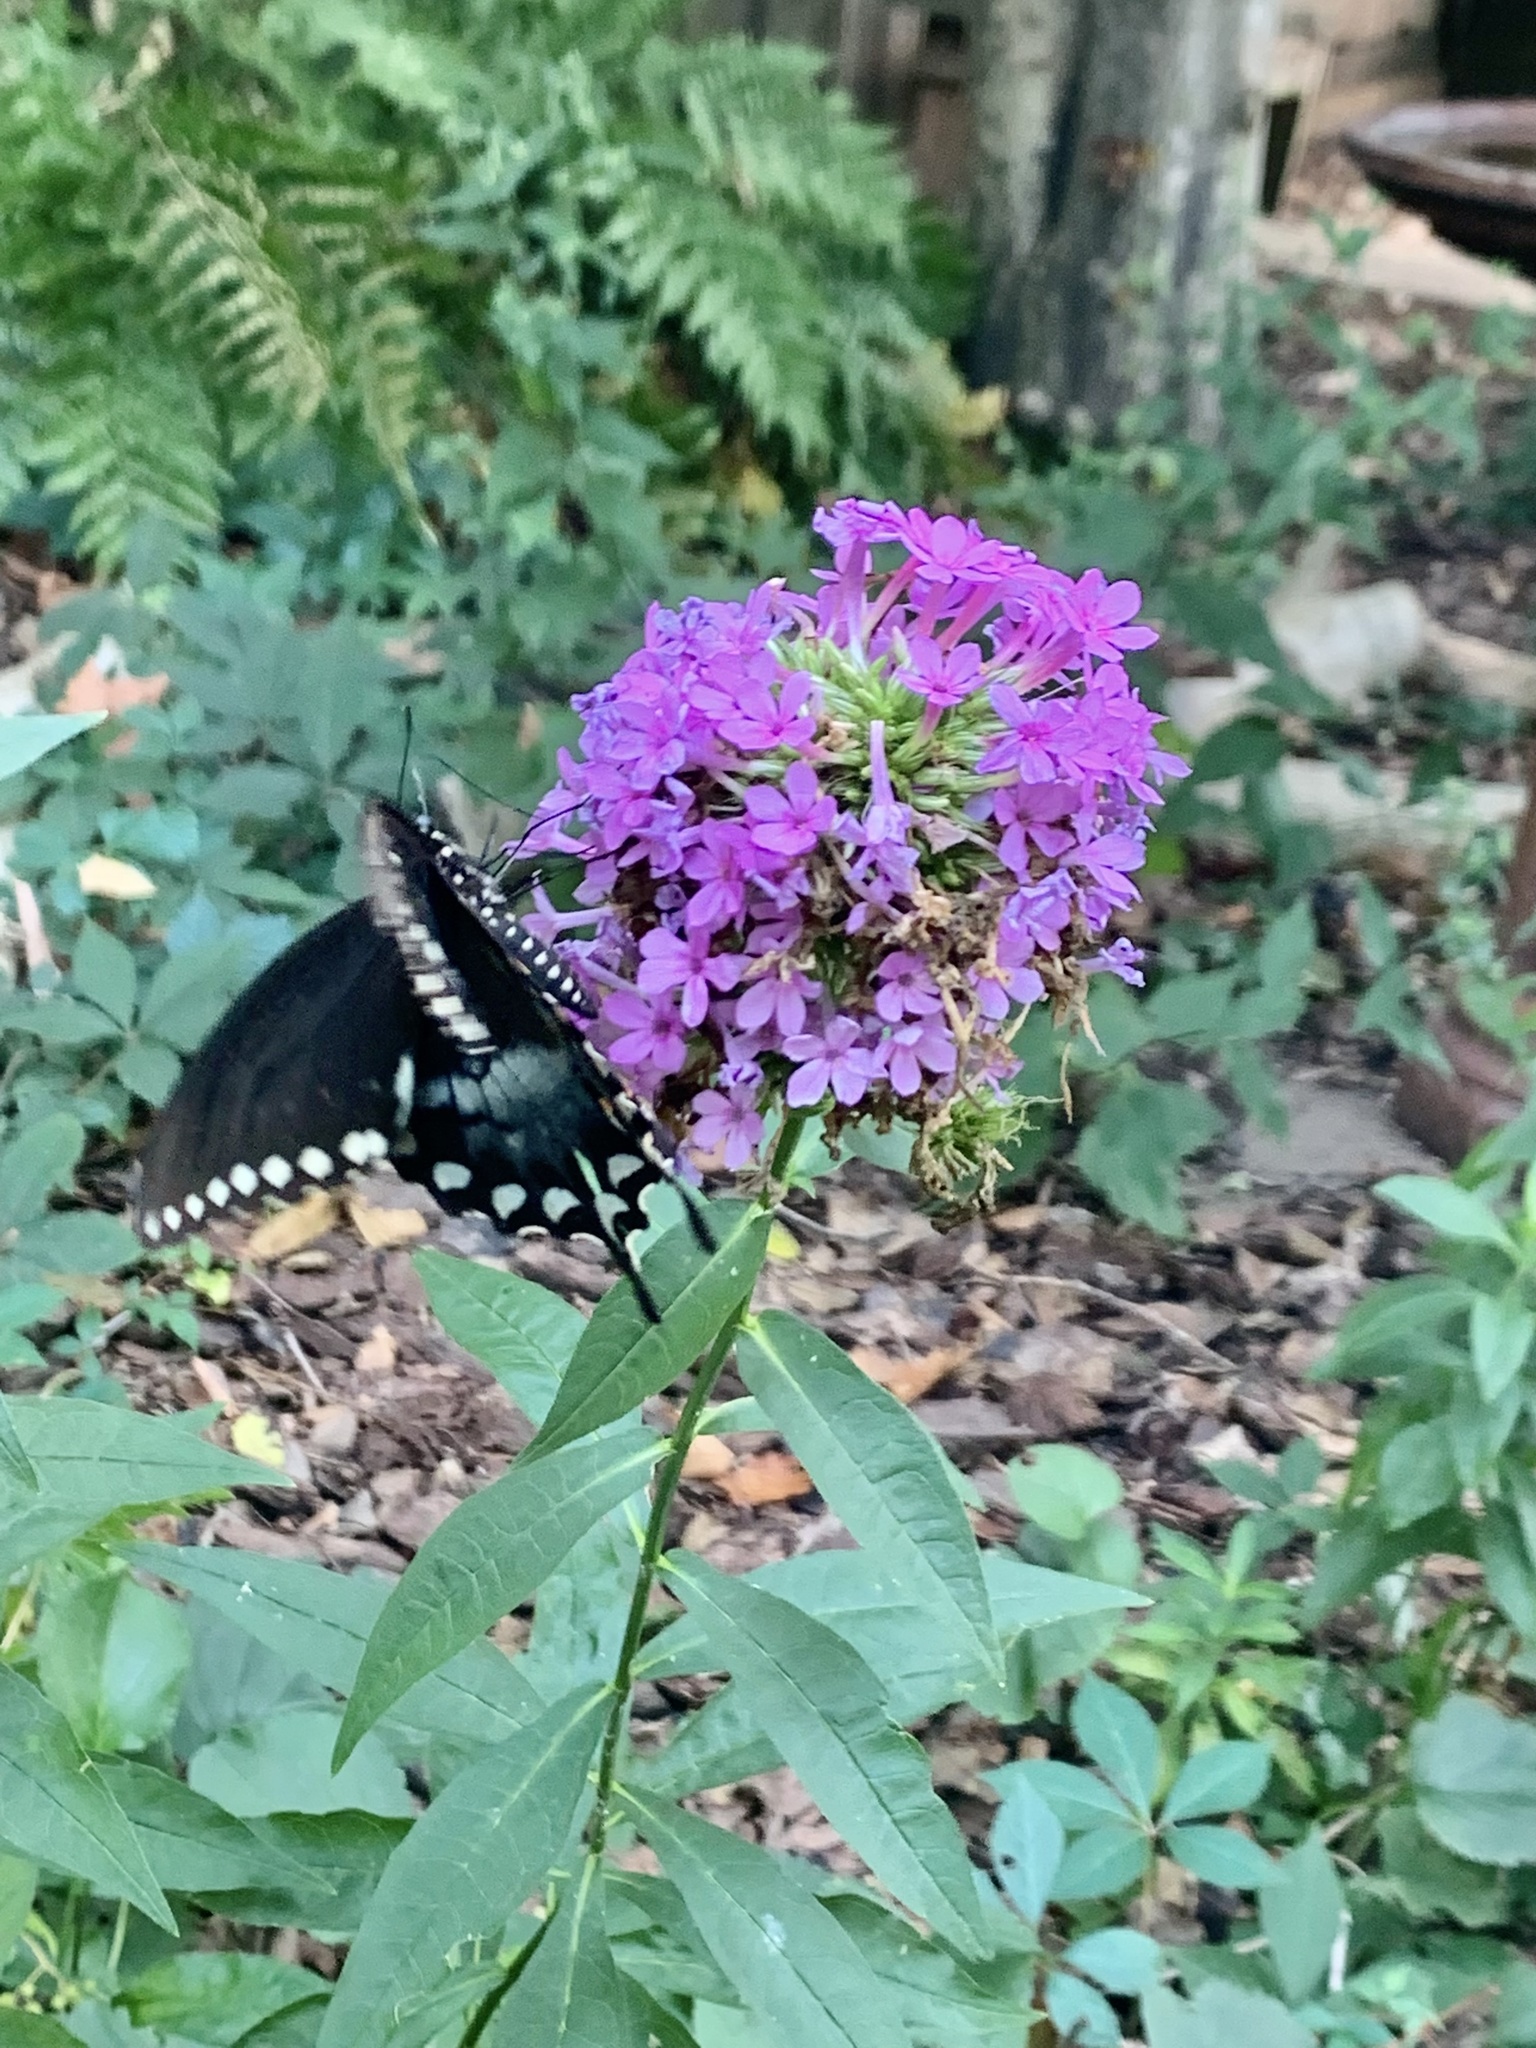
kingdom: Animalia
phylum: Arthropoda
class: Insecta
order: Lepidoptera
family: Papilionidae
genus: Papilio
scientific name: Papilio troilus
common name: Spicebush swallowtail
